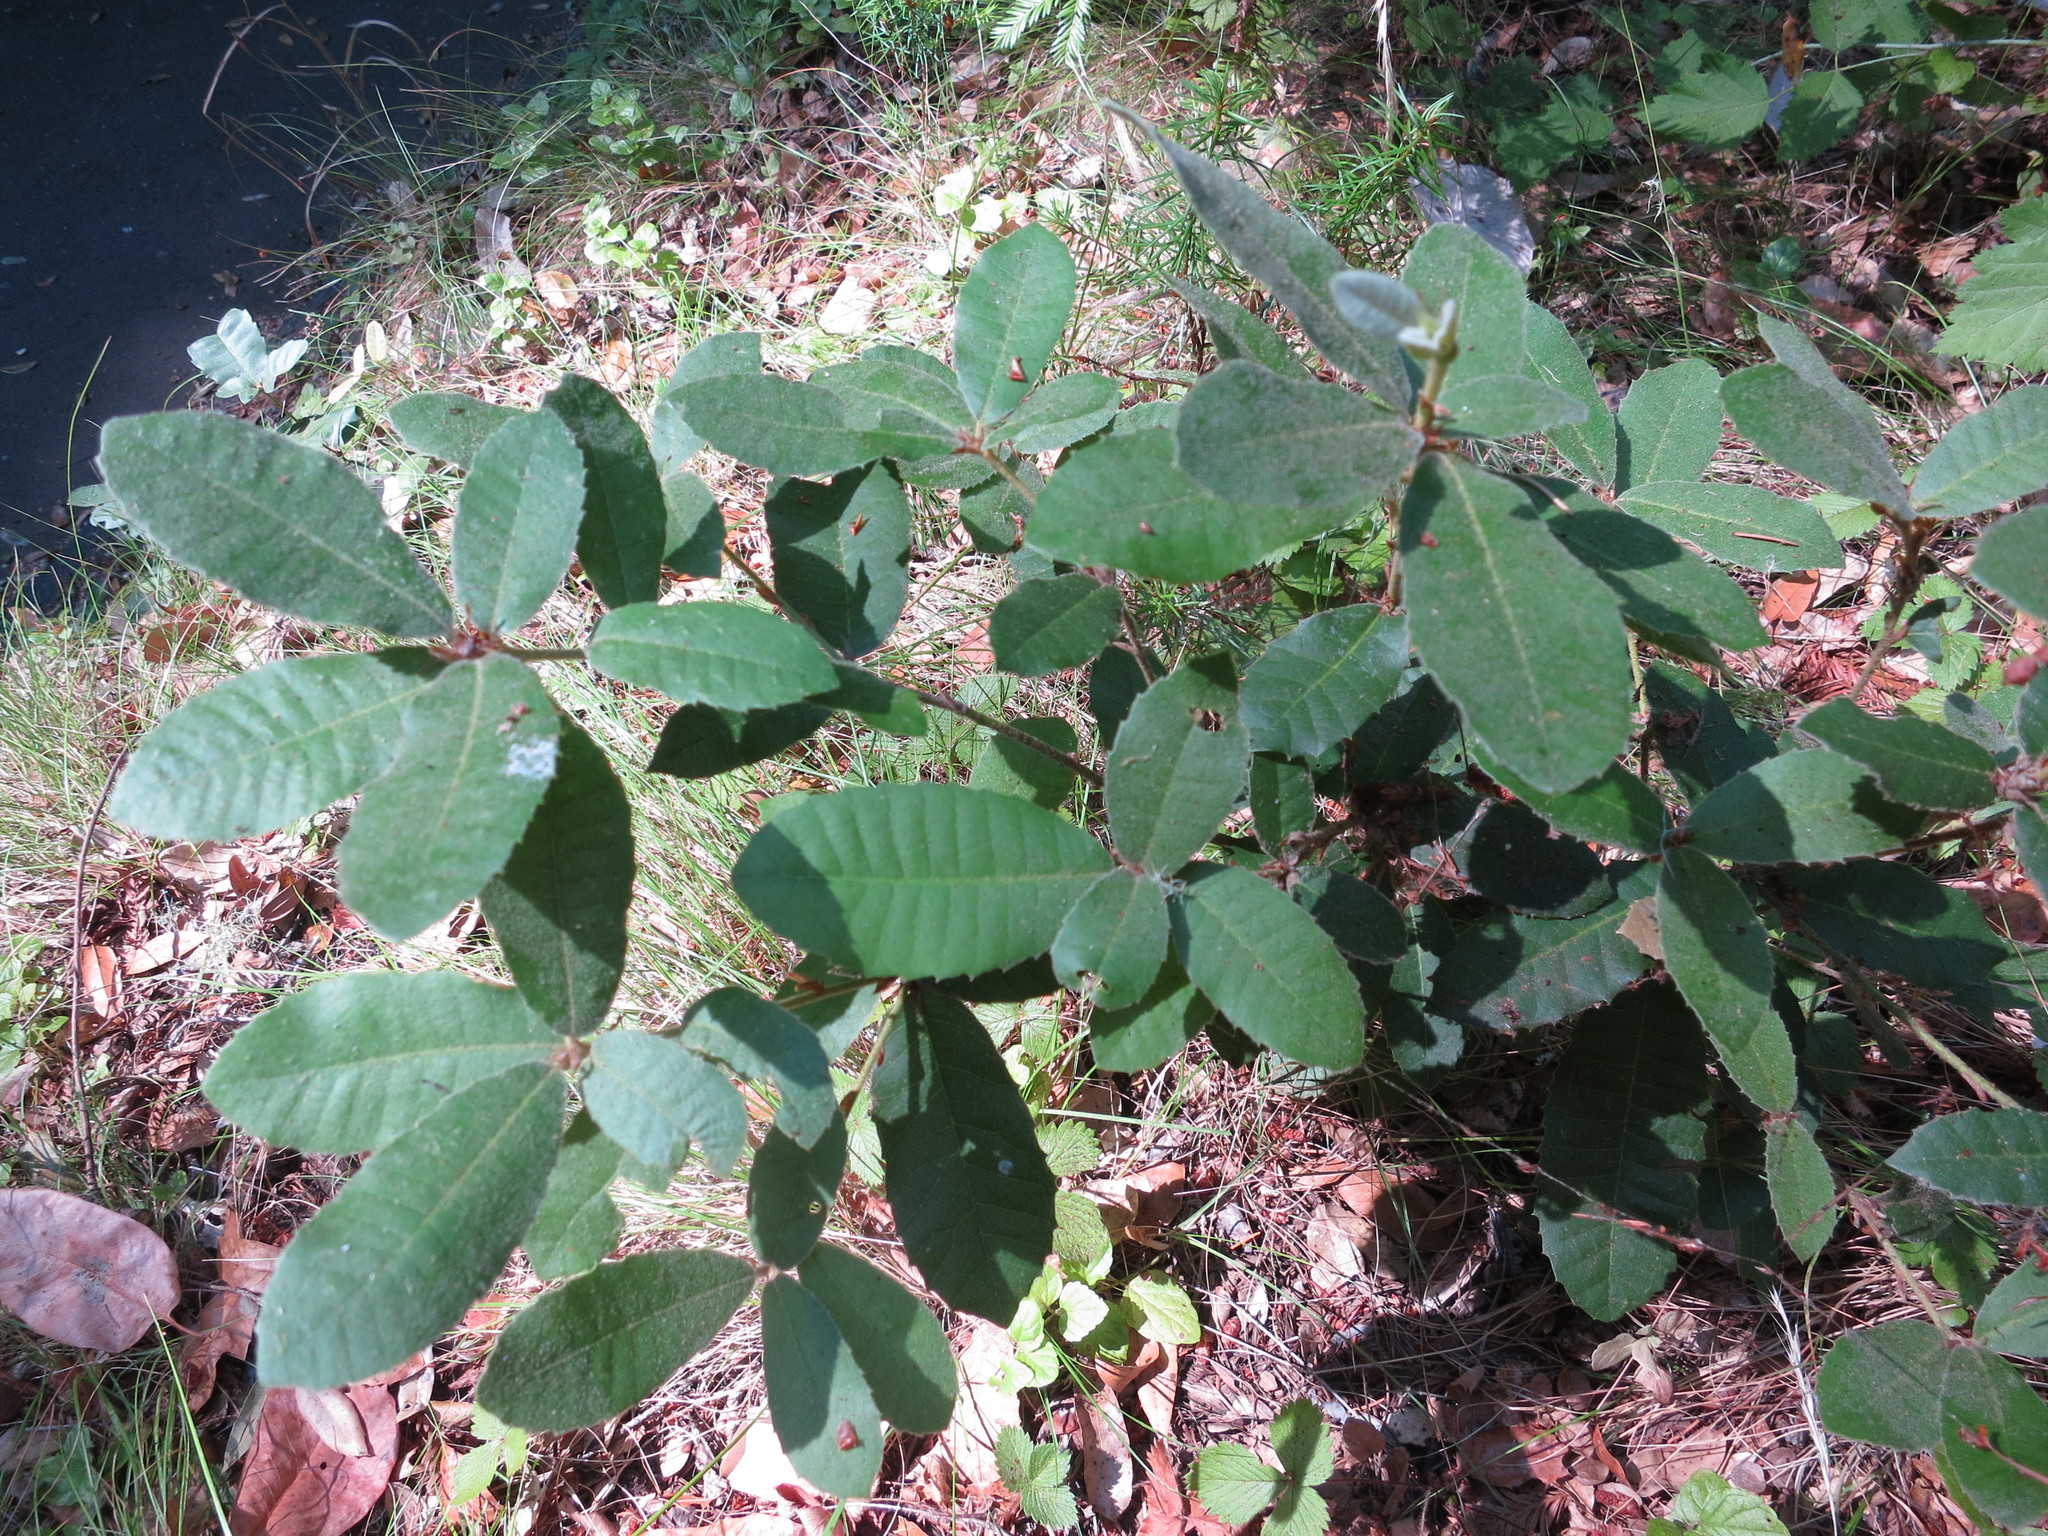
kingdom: Plantae
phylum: Tracheophyta
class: Magnoliopsida
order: Fagales
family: Fagaceae
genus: Notholithocarpus
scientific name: Notholithocarpus densiflorus
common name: Tan bark oak
